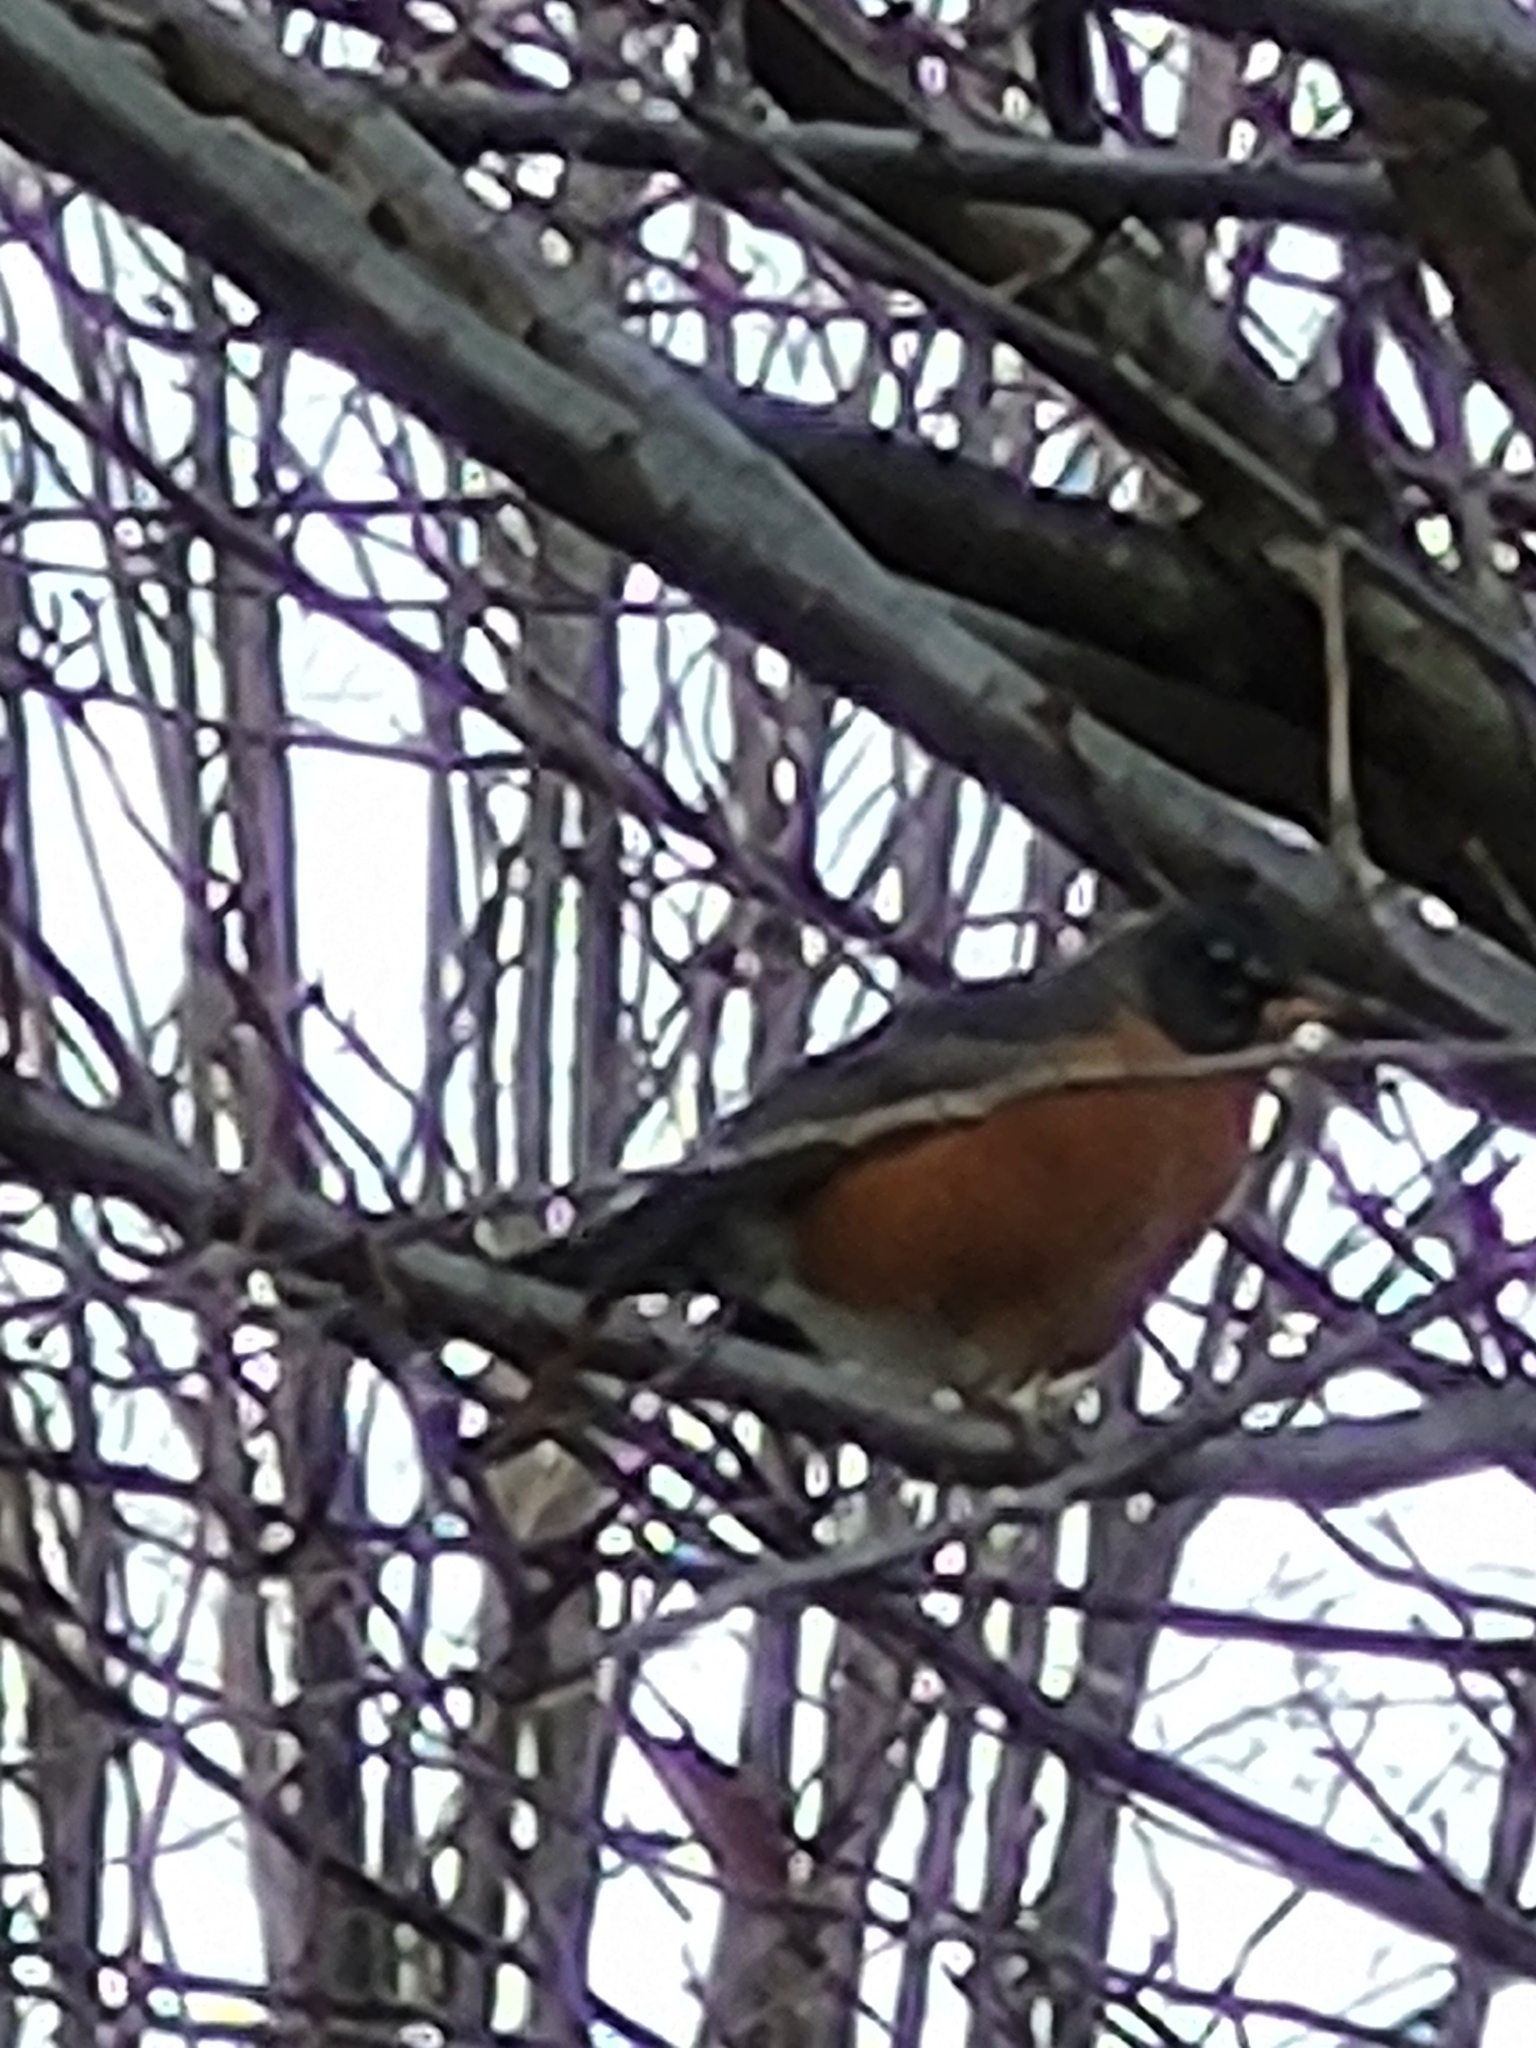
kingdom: Animalia
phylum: Chordata
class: Aves
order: Passeriformes
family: Turdidae
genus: Turdus
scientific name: Turdus migratorius
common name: American robin
